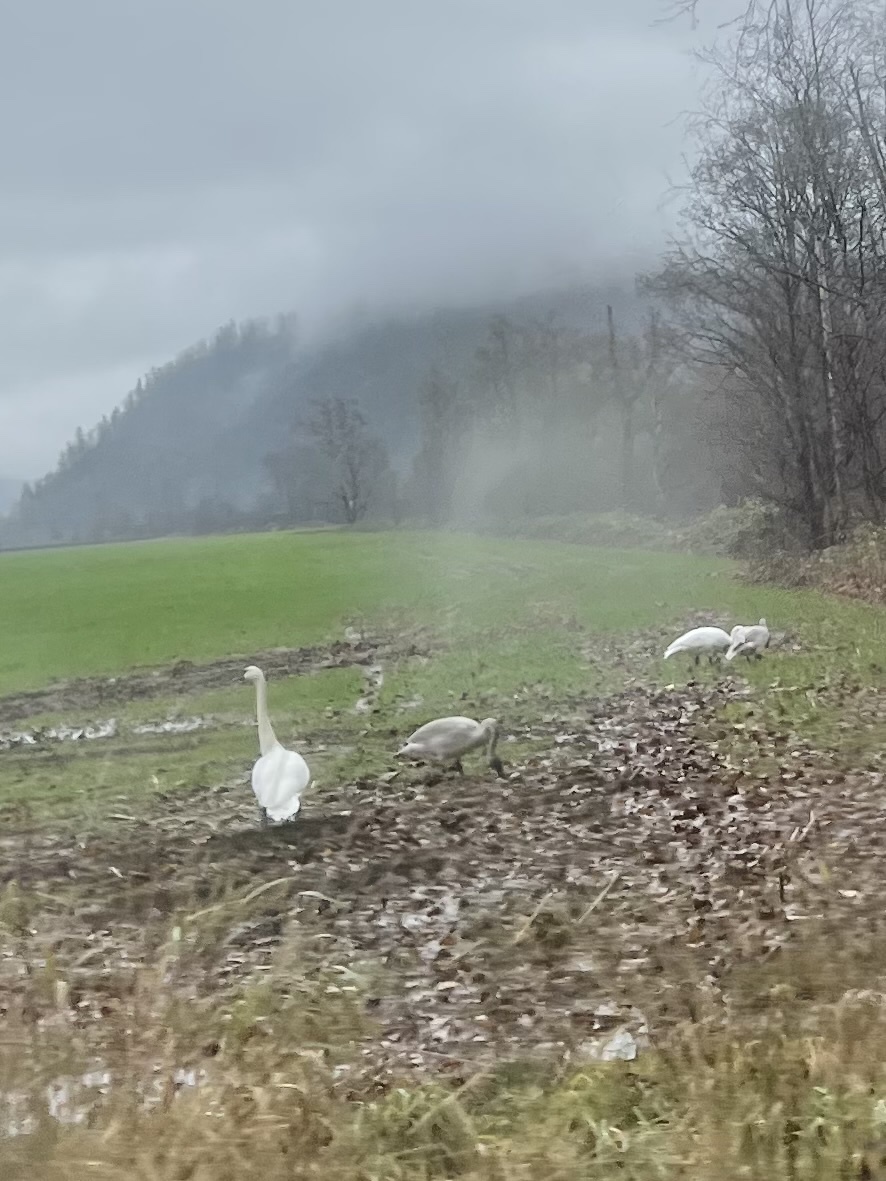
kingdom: Animalia
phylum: Chordata
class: Aves
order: Anseriformes
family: Anatidae
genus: Cygnus
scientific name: Cygnus buccinator
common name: Trumpeter swan
